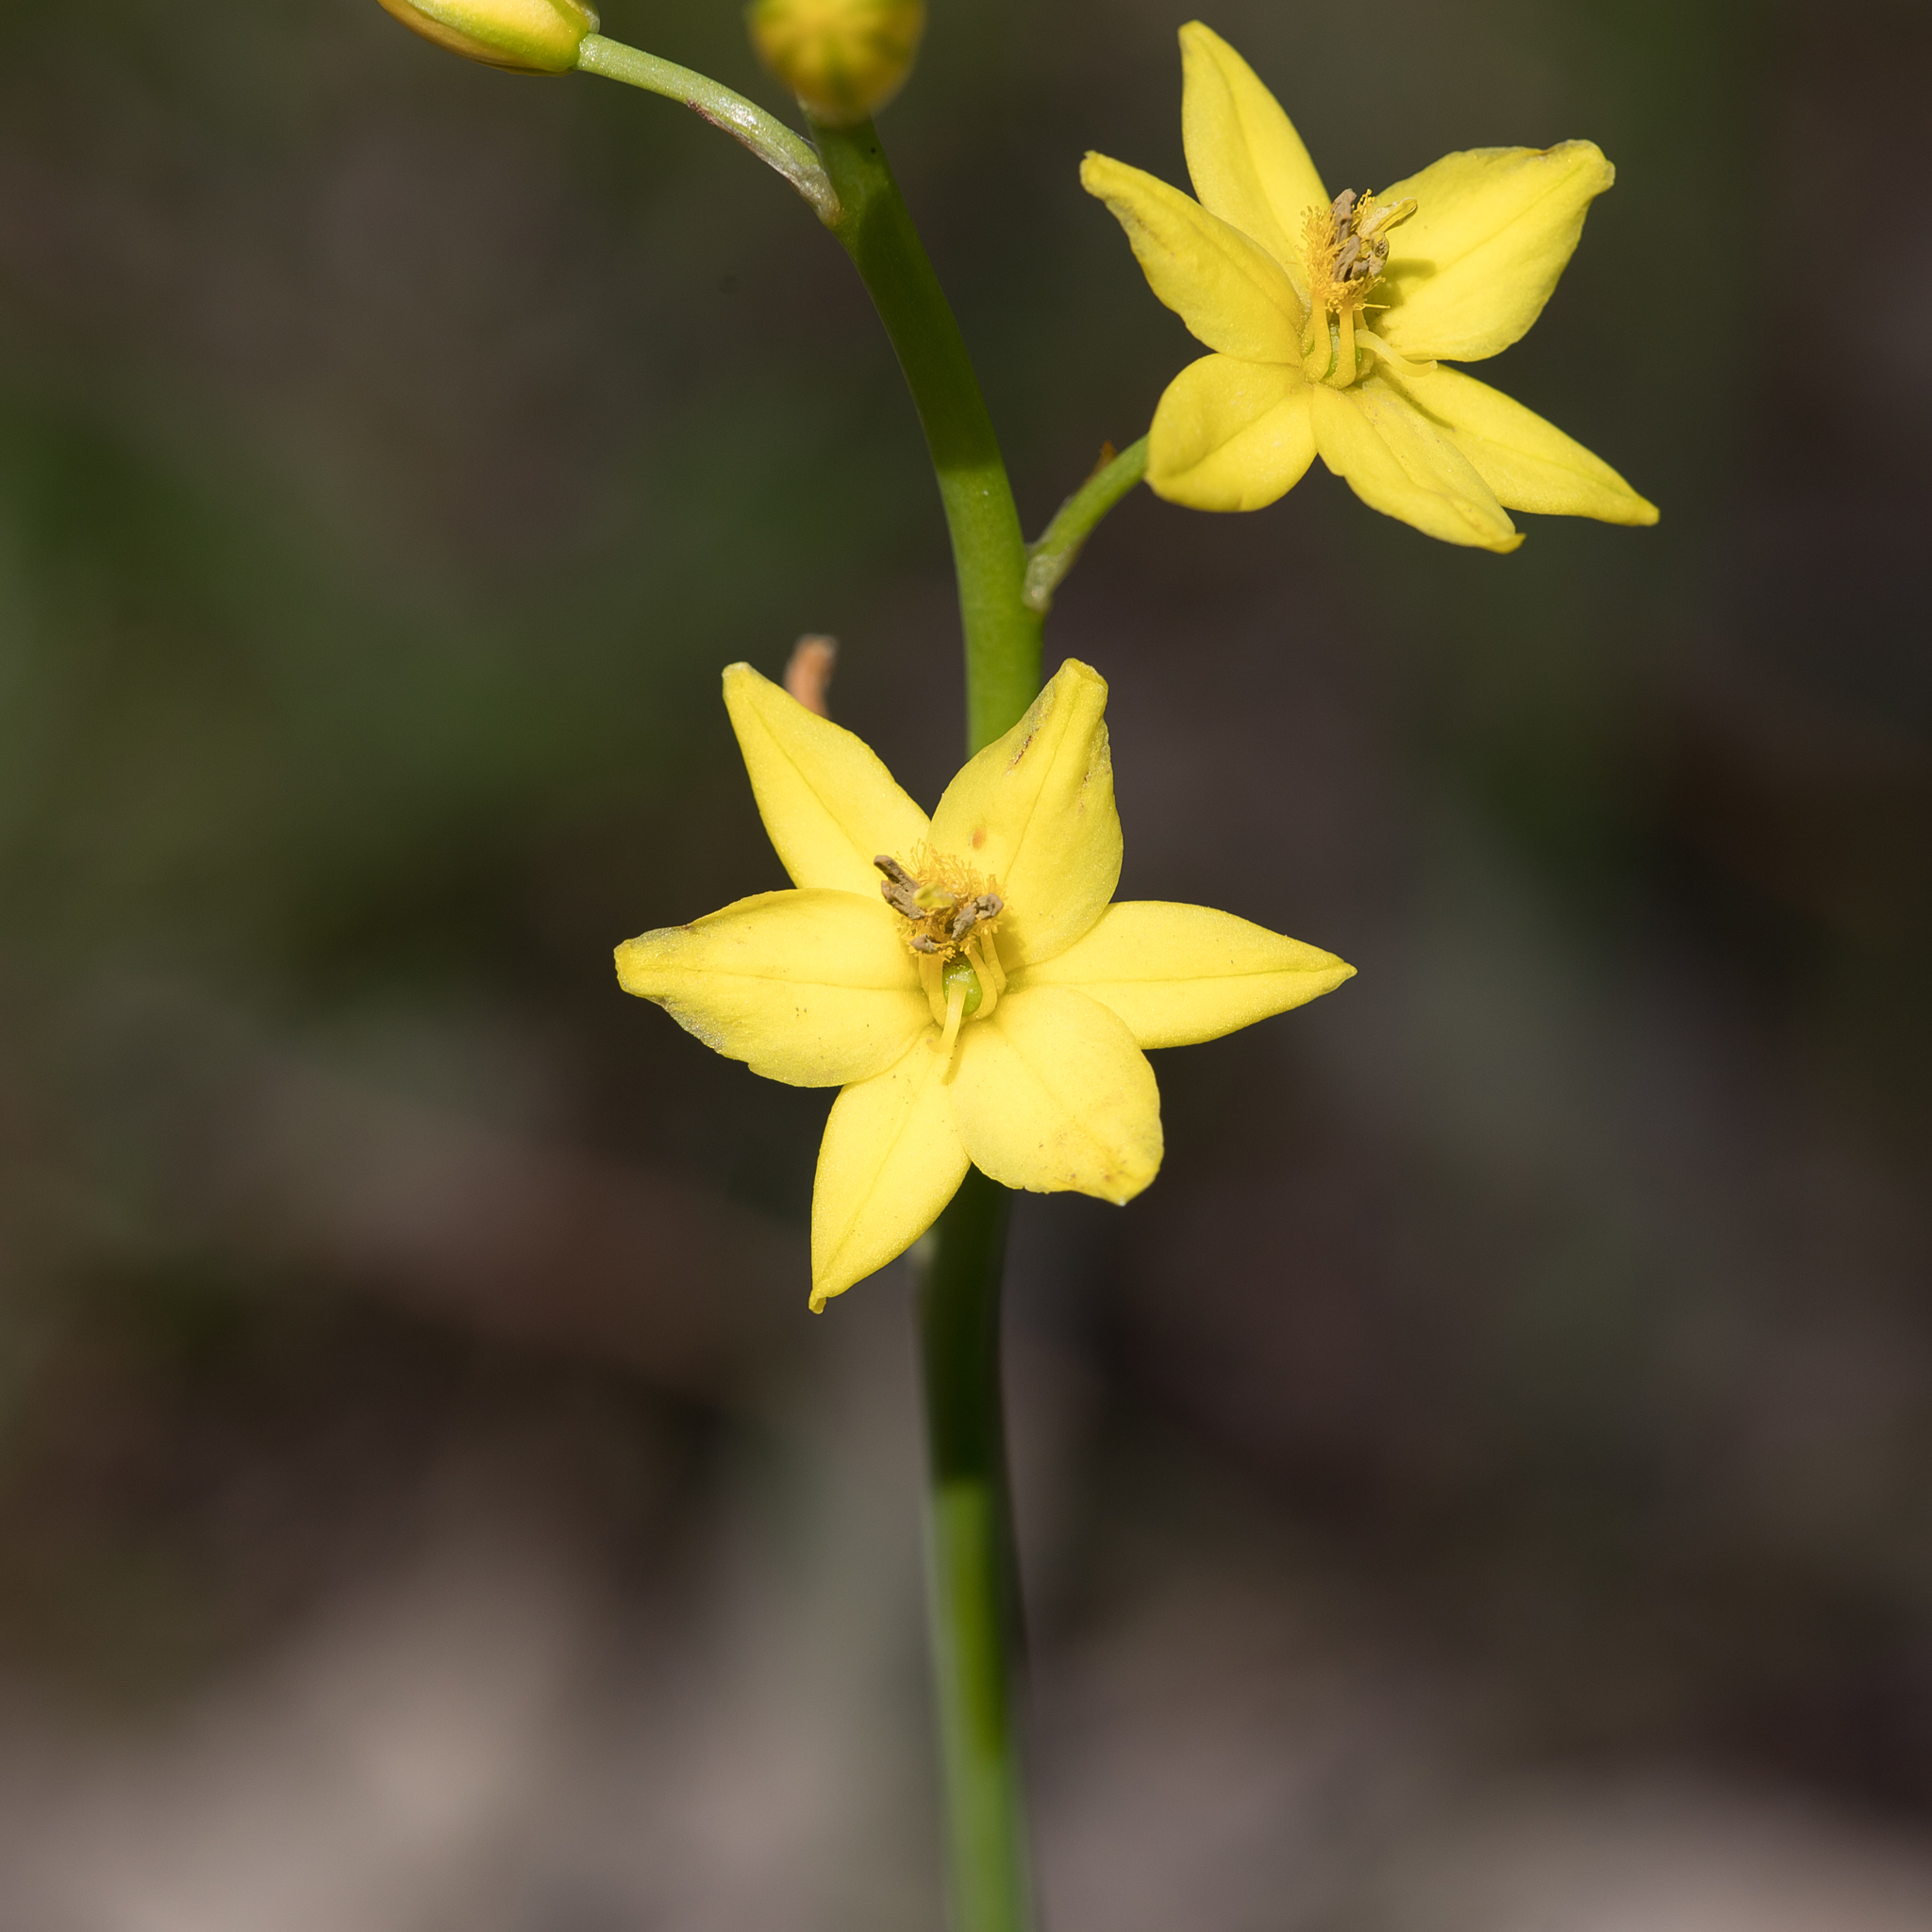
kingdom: Plantae
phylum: Tracheophyta
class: Liliopsida
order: Asparagales
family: Asphodelaceae
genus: Bulbine
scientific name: Bulbine bulbosa
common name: Golden-lily
